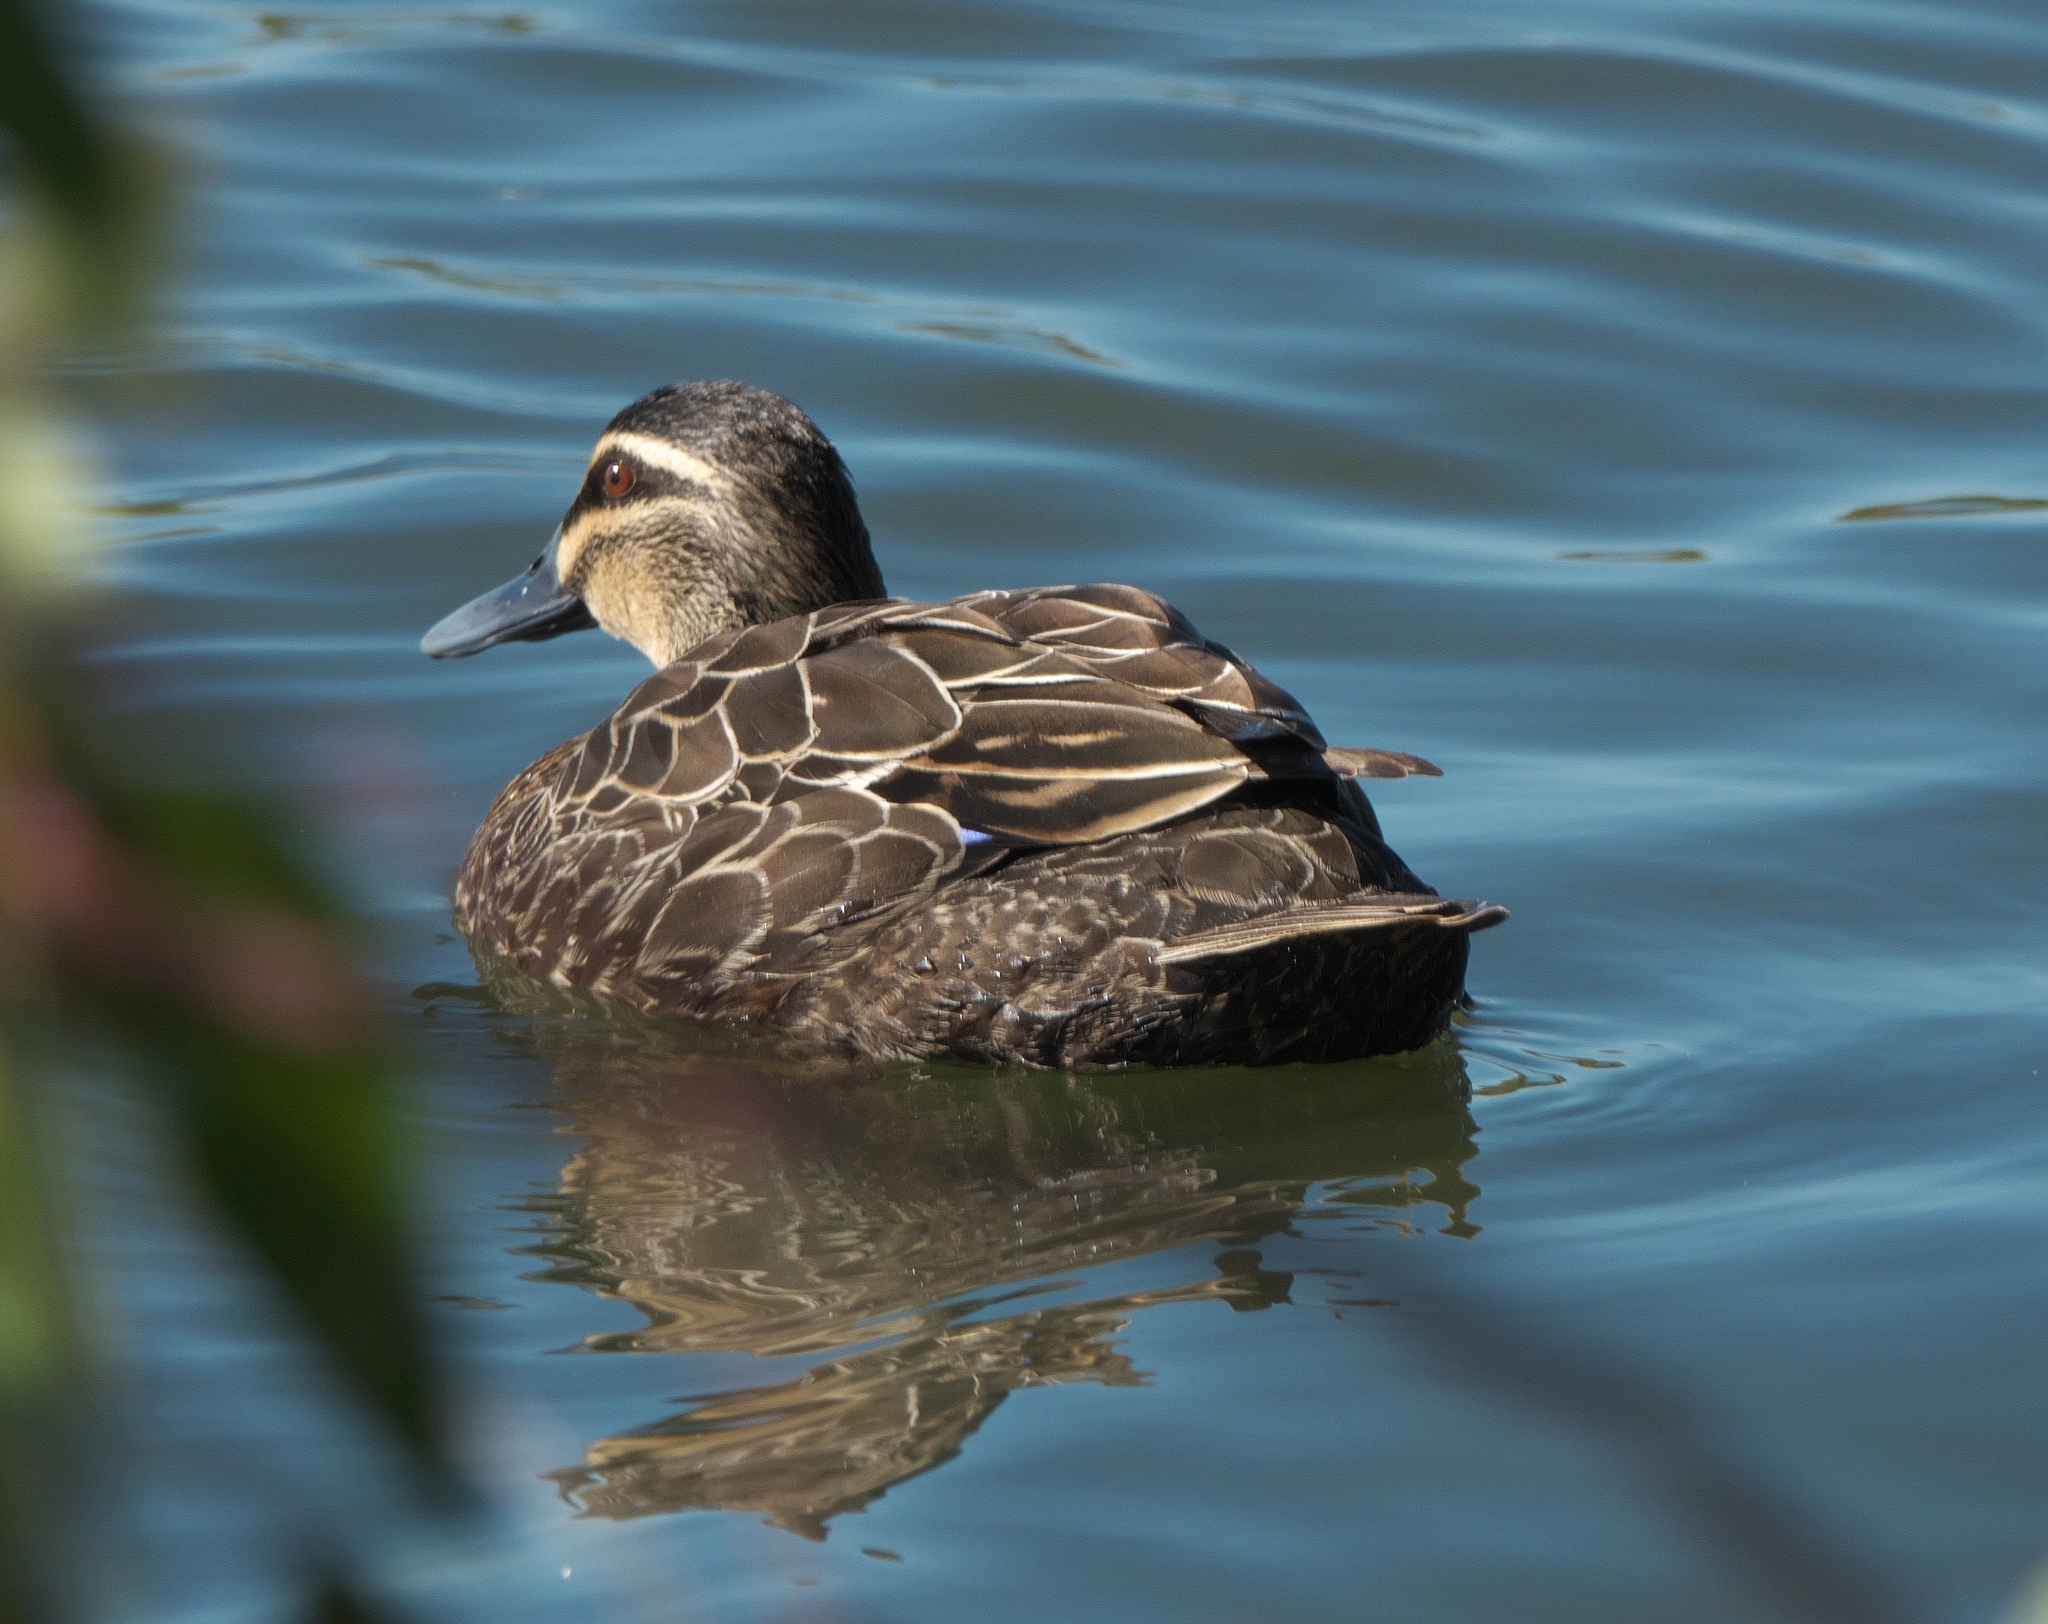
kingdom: Animalia
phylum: Chordata
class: Aves
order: Anseriformes
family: Anatidae
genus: Anas
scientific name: Anas superciliosa
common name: Pacific black duck
